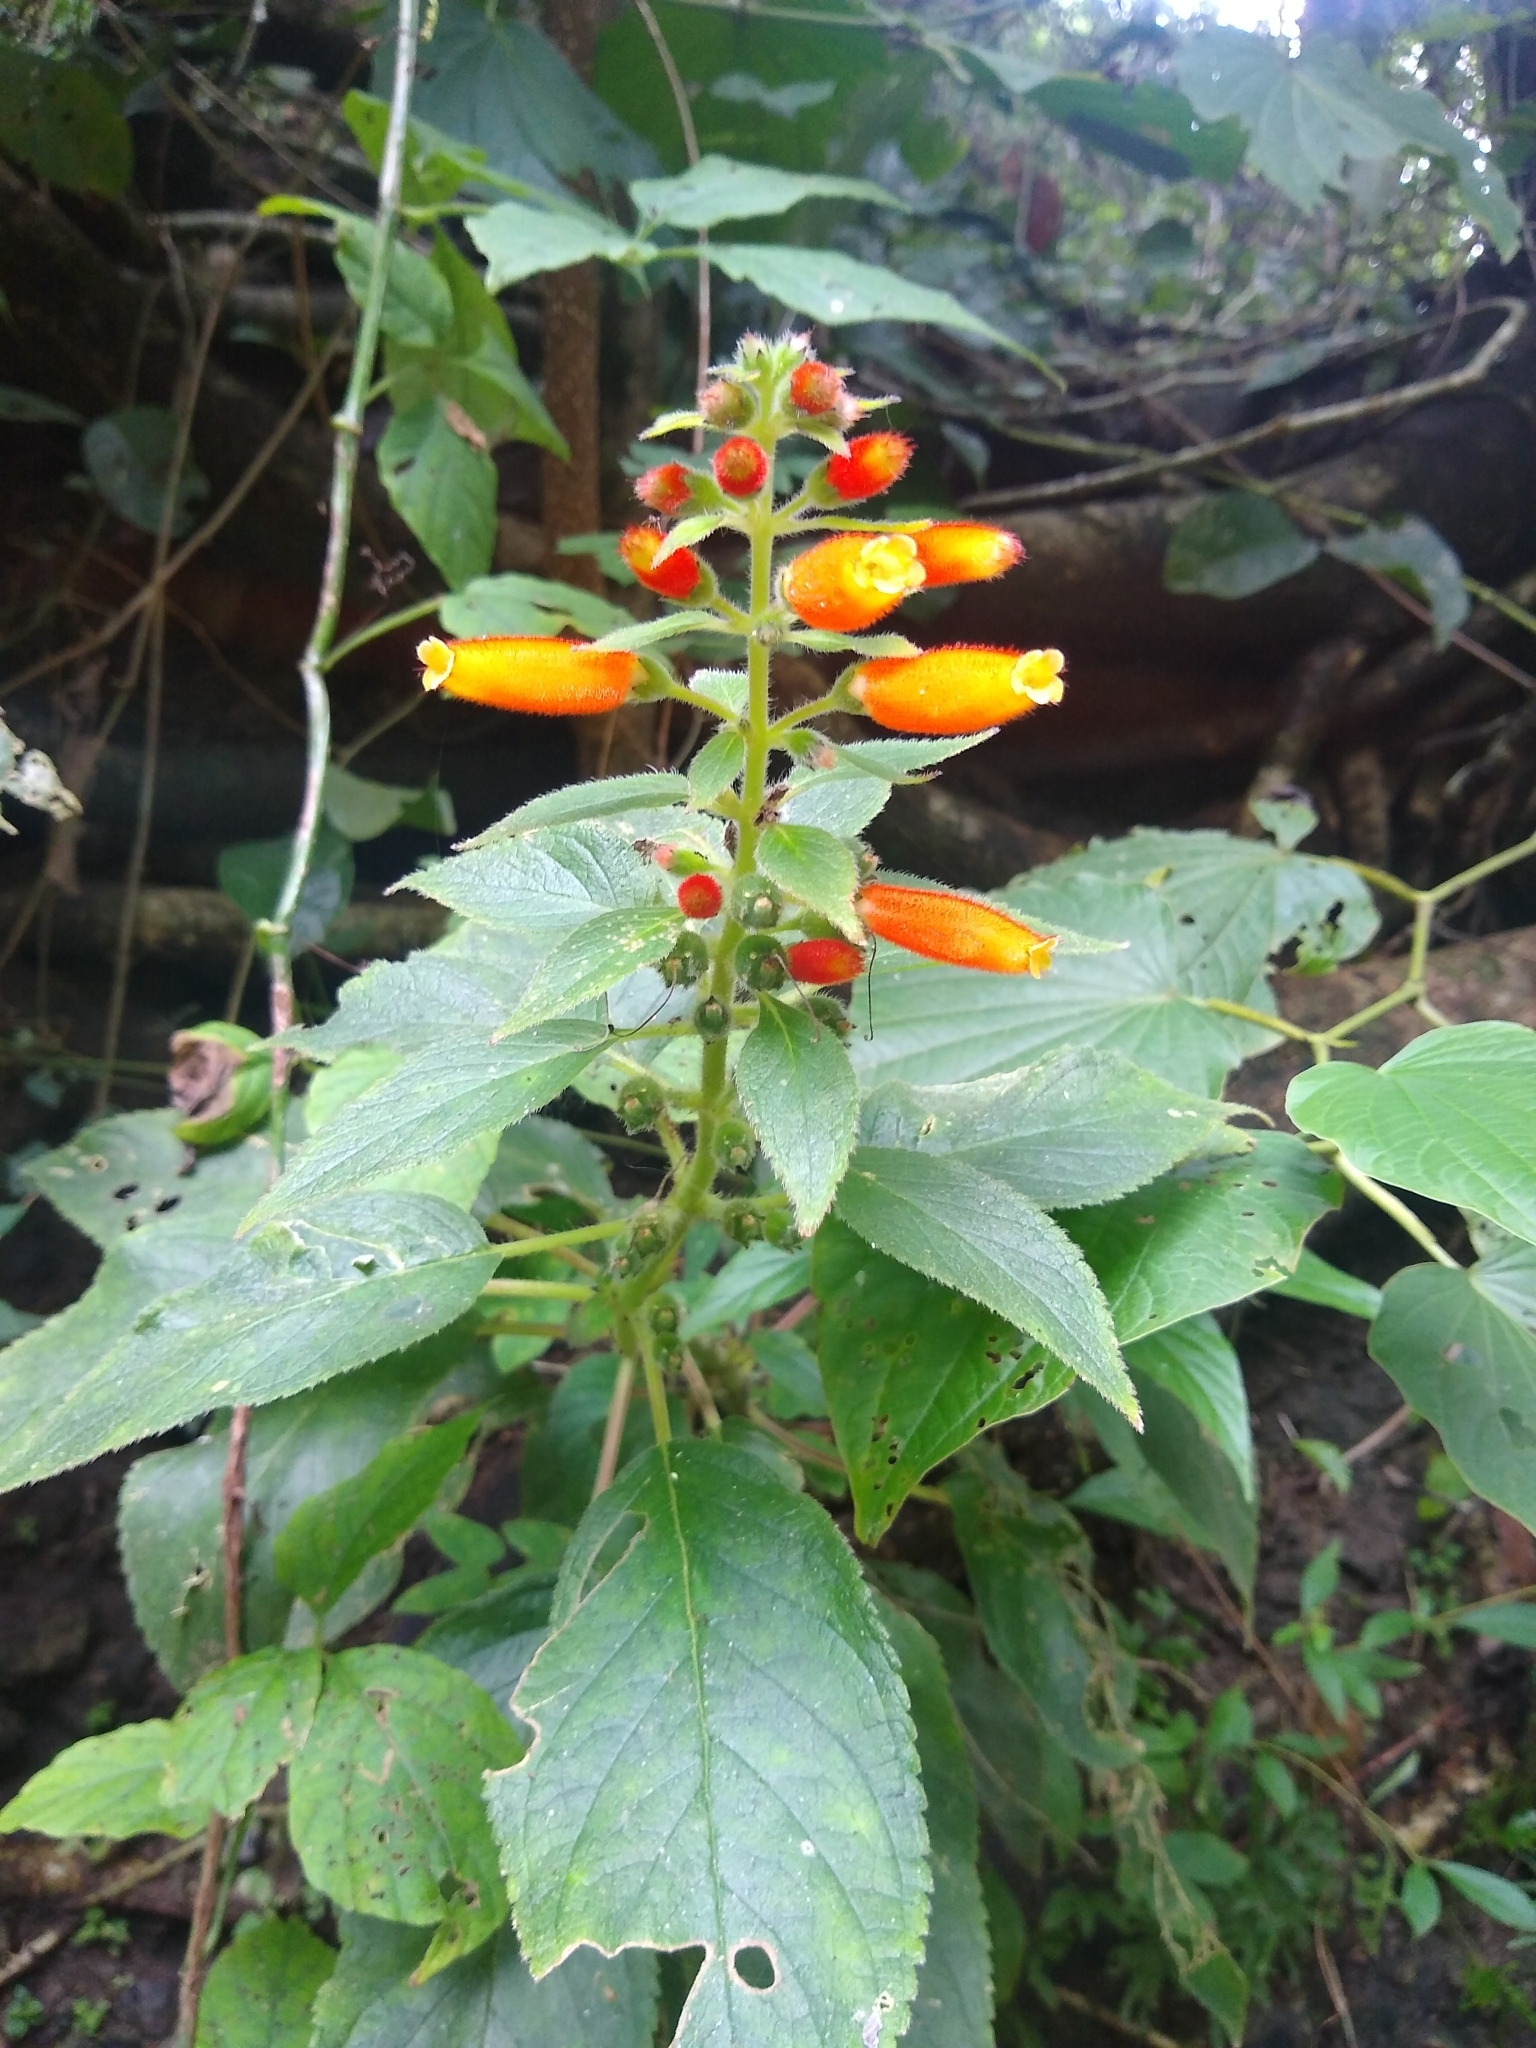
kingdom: Plantae
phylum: Tracheophyta
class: Magnoliopsida
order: Lamiales
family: Gesneriaceae
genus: Kohleria
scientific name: Kohleria tubiflora
